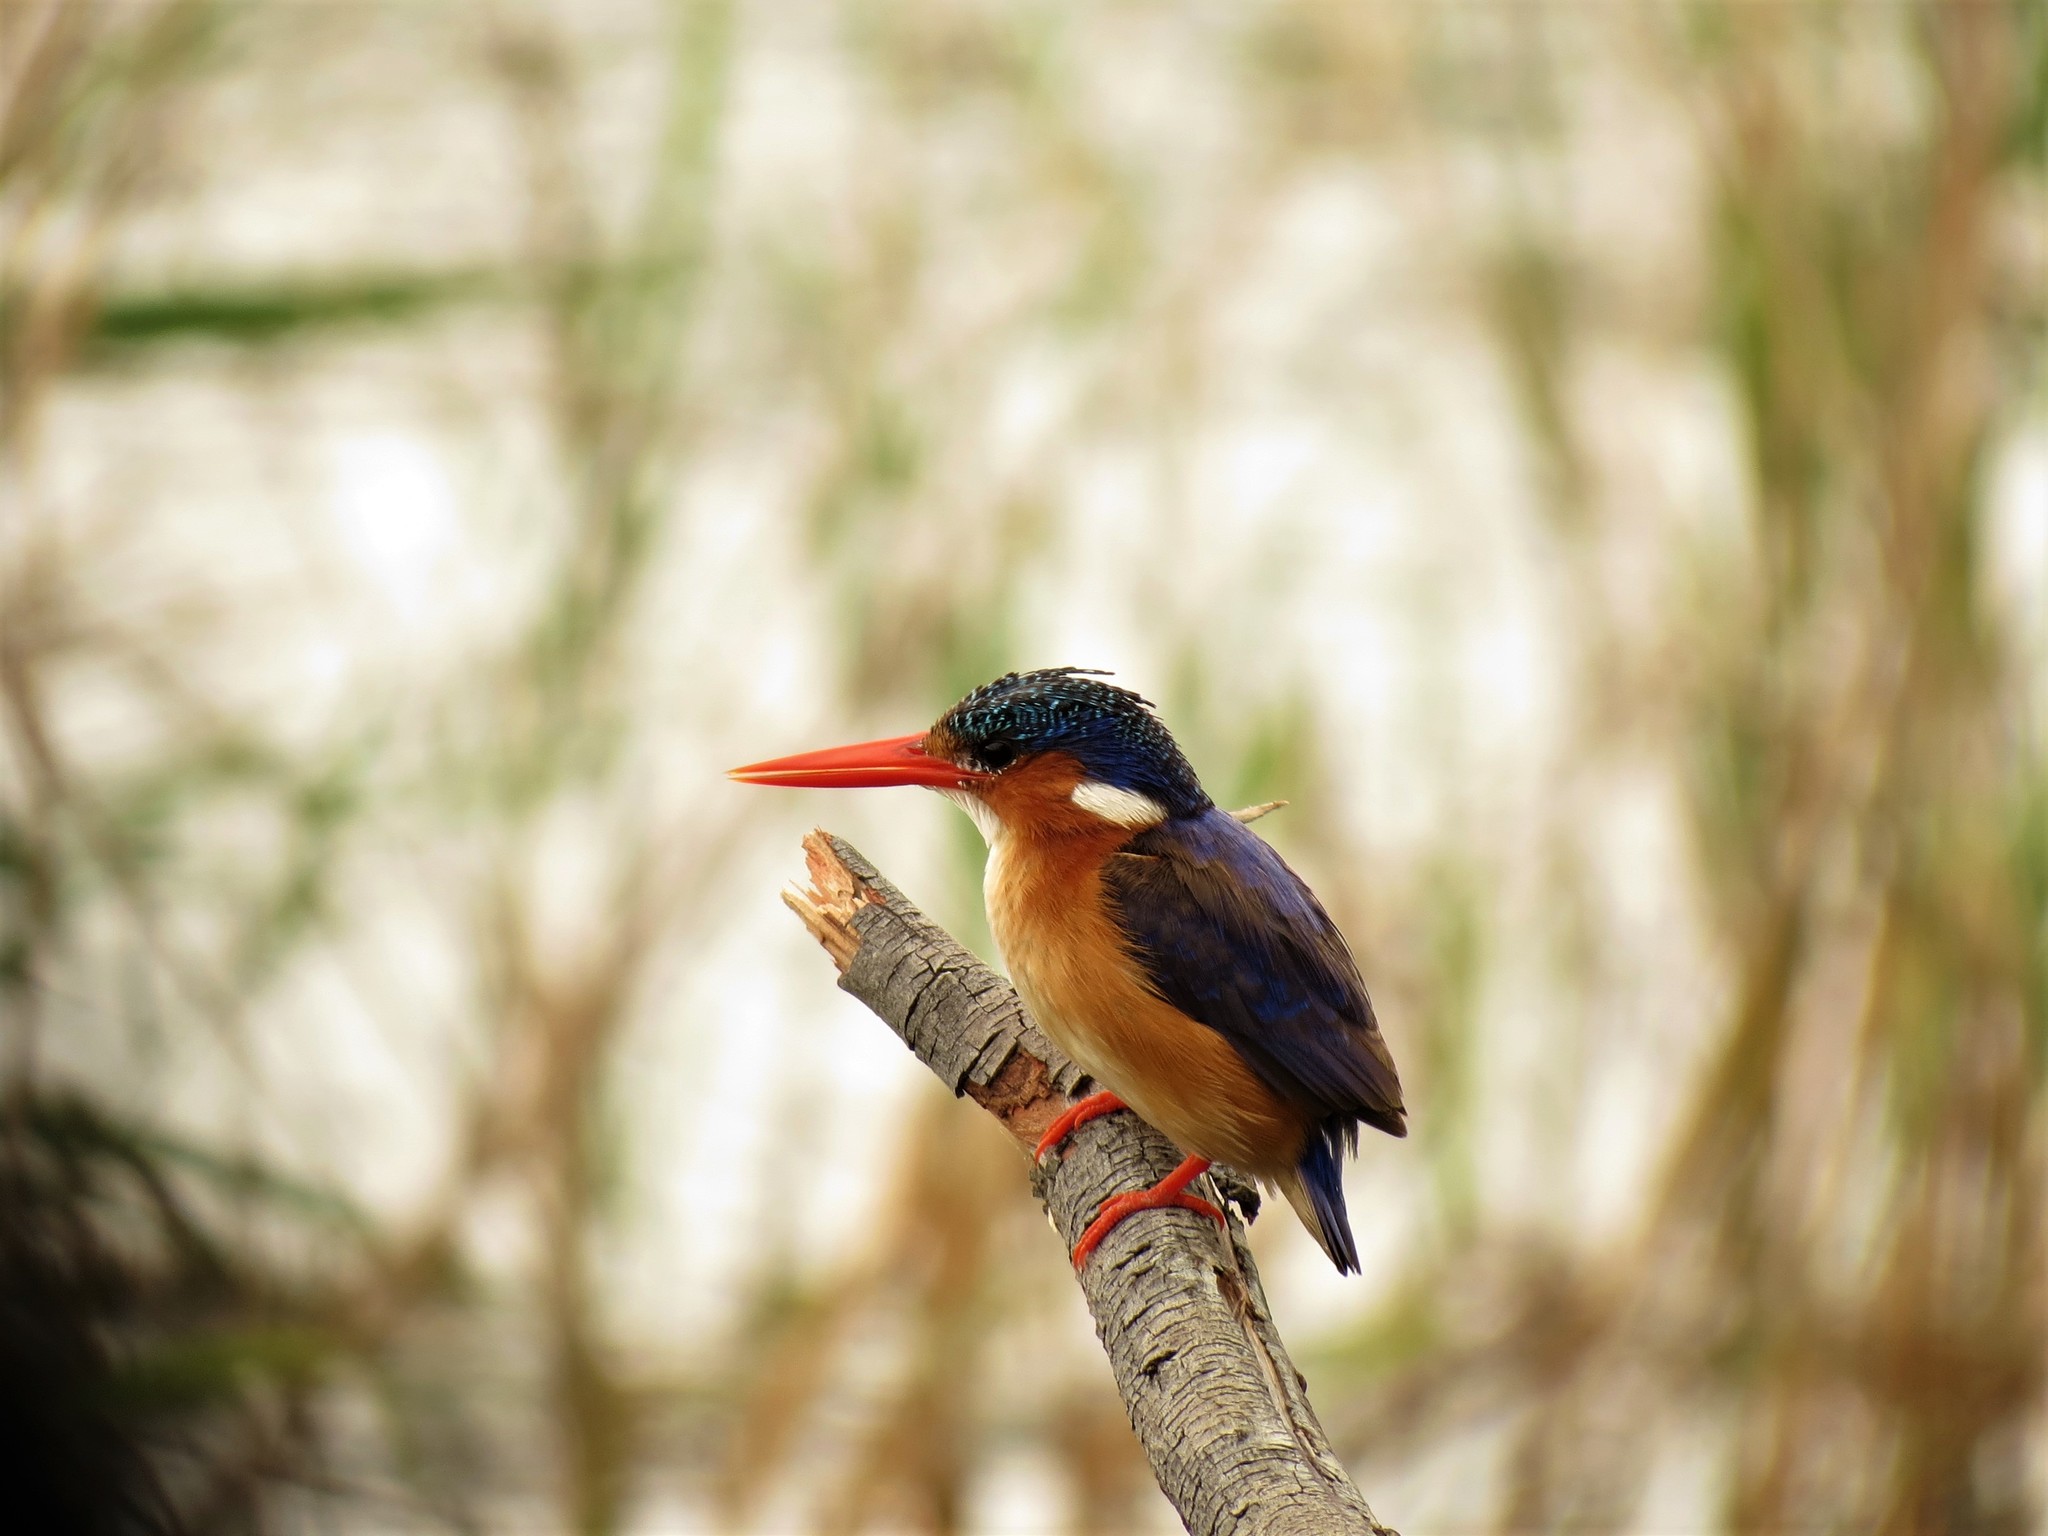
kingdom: Animalia
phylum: Chordata
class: Aves
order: Coraciiformes
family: Alcedinidae
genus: Corythornis
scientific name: Corythornis cristatus
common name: Malachite kingfisher
